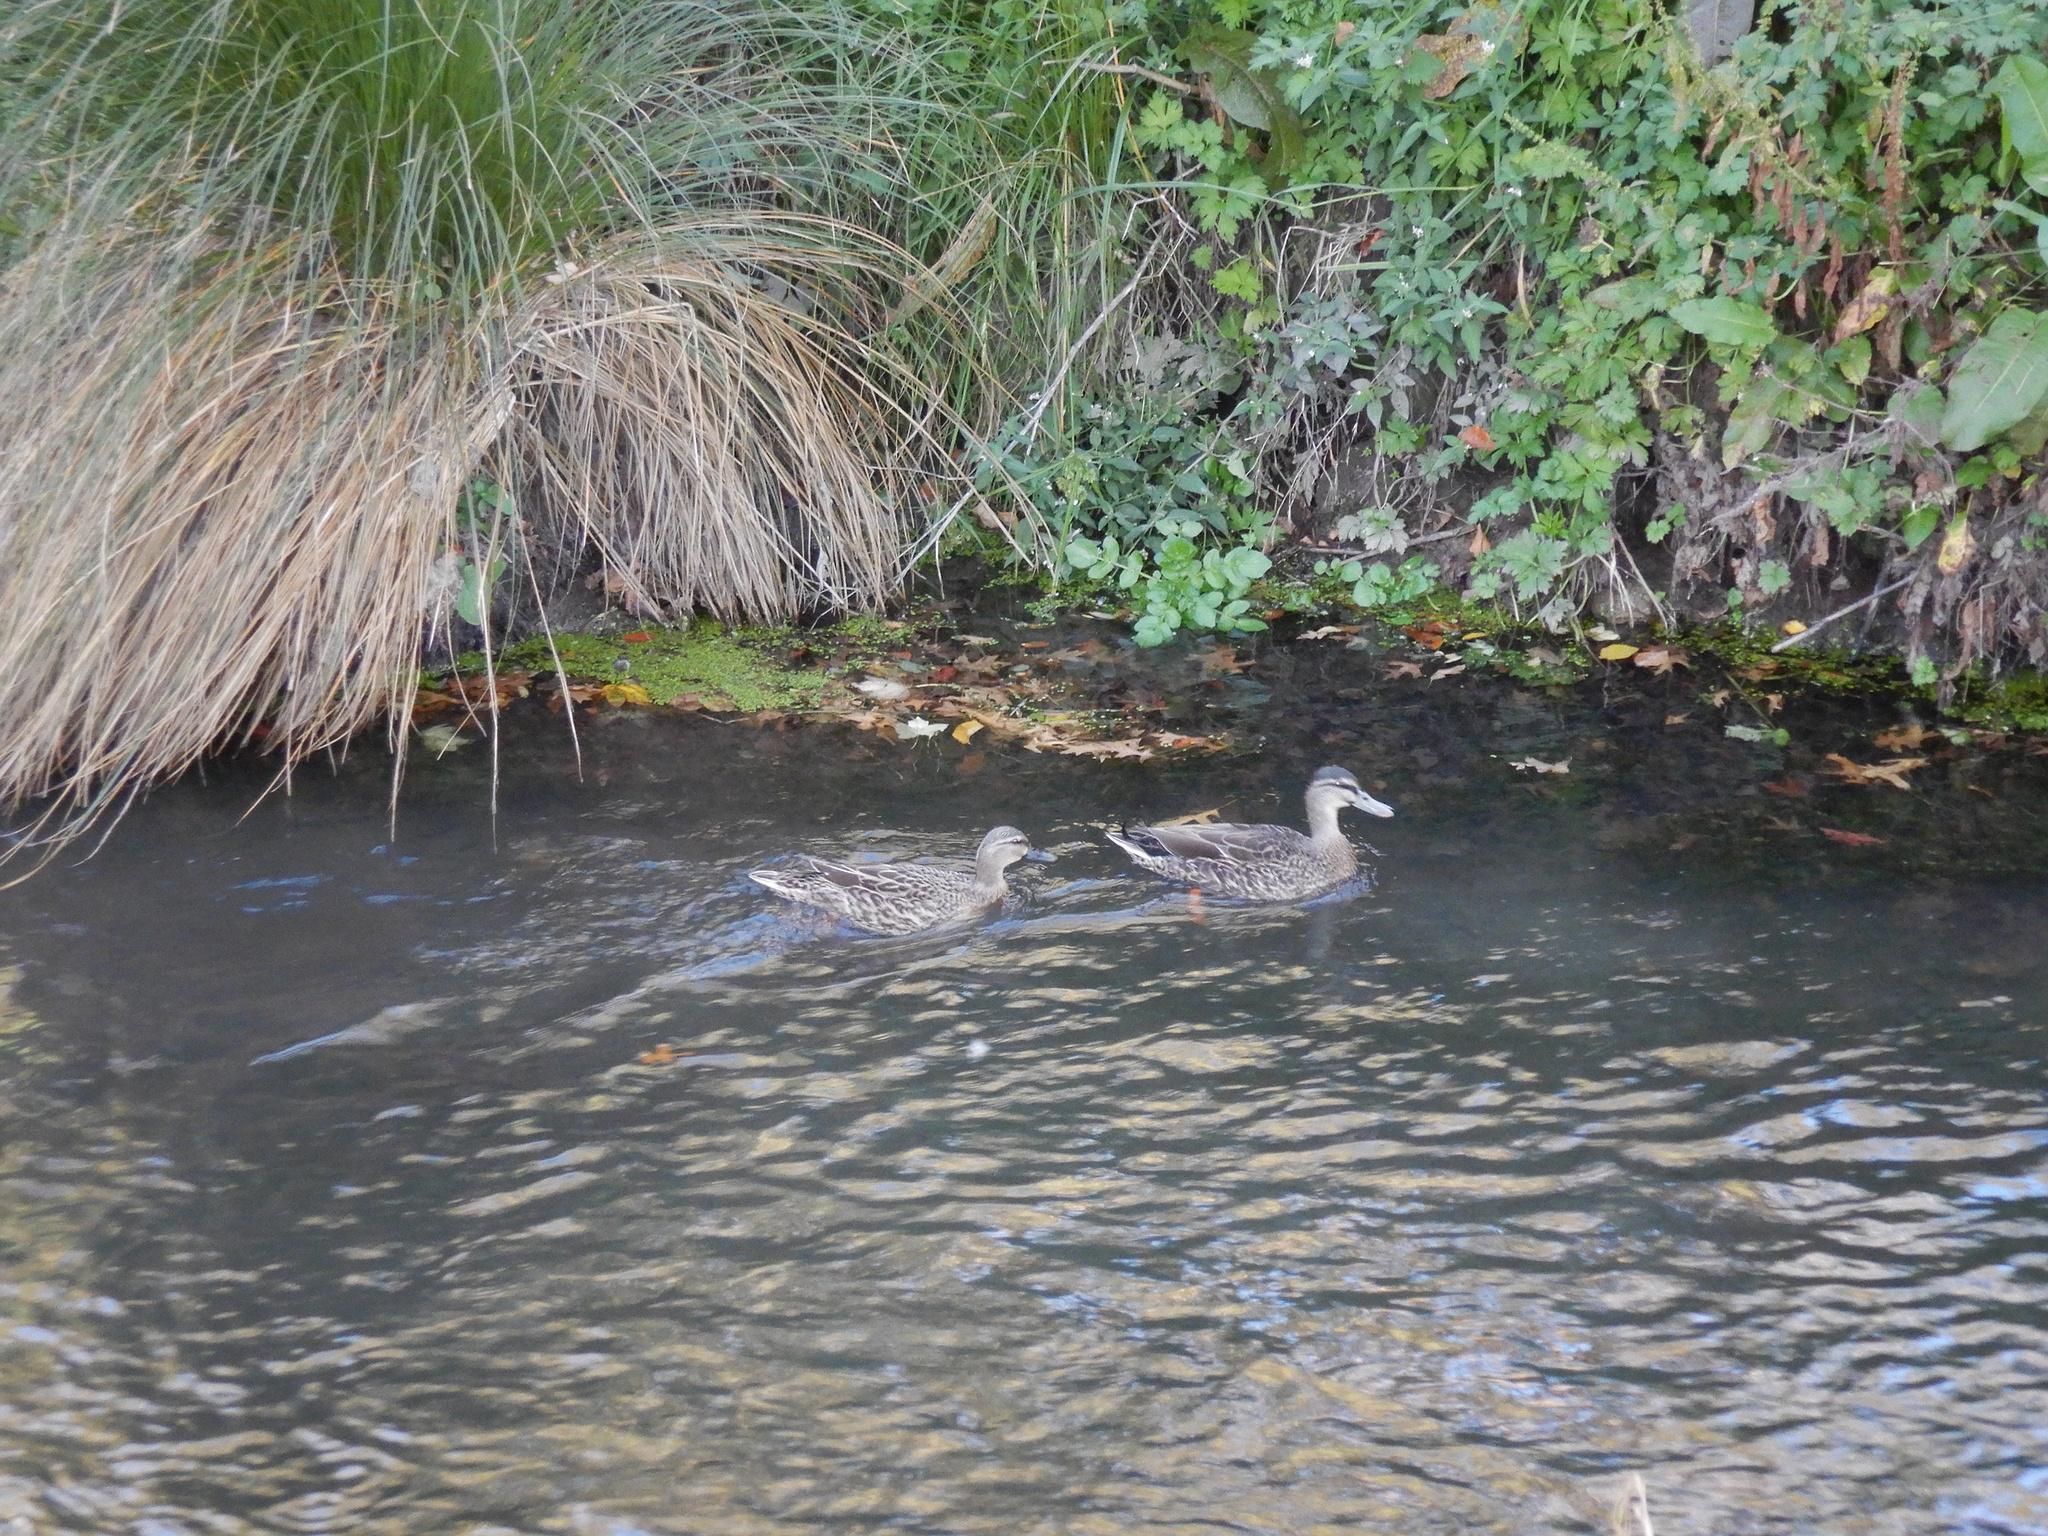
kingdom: Animalia
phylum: Chordata
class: Aves
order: Anseriformes
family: Anatidae
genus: Anas
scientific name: Anas platyrhynchos
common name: Mallard
